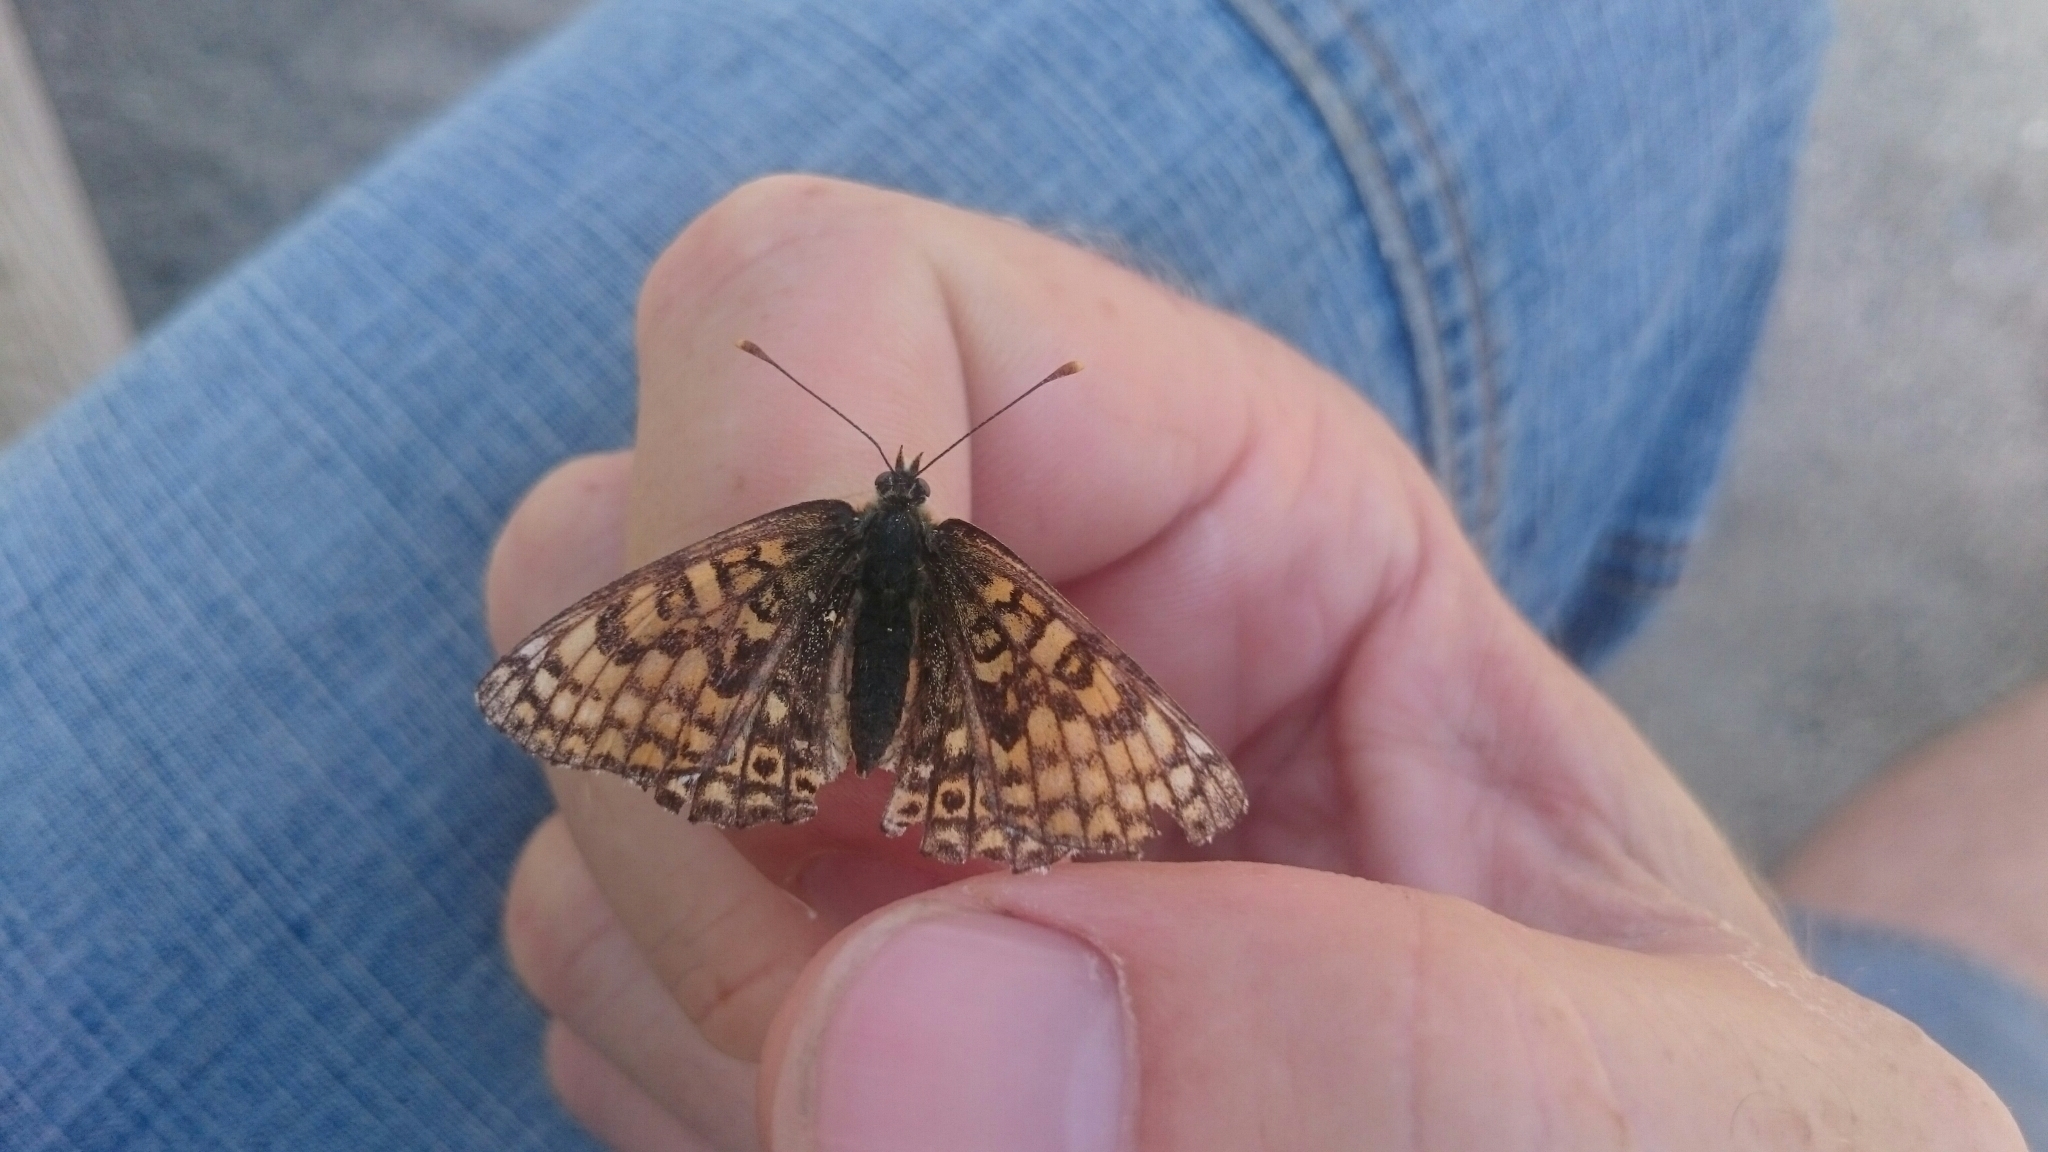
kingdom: Animalia
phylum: Arthropoda
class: Insecta
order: Lepidoptera
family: Nymphalidae
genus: Melitaea
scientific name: Melitaea cinxia
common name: Glanville fritillary
